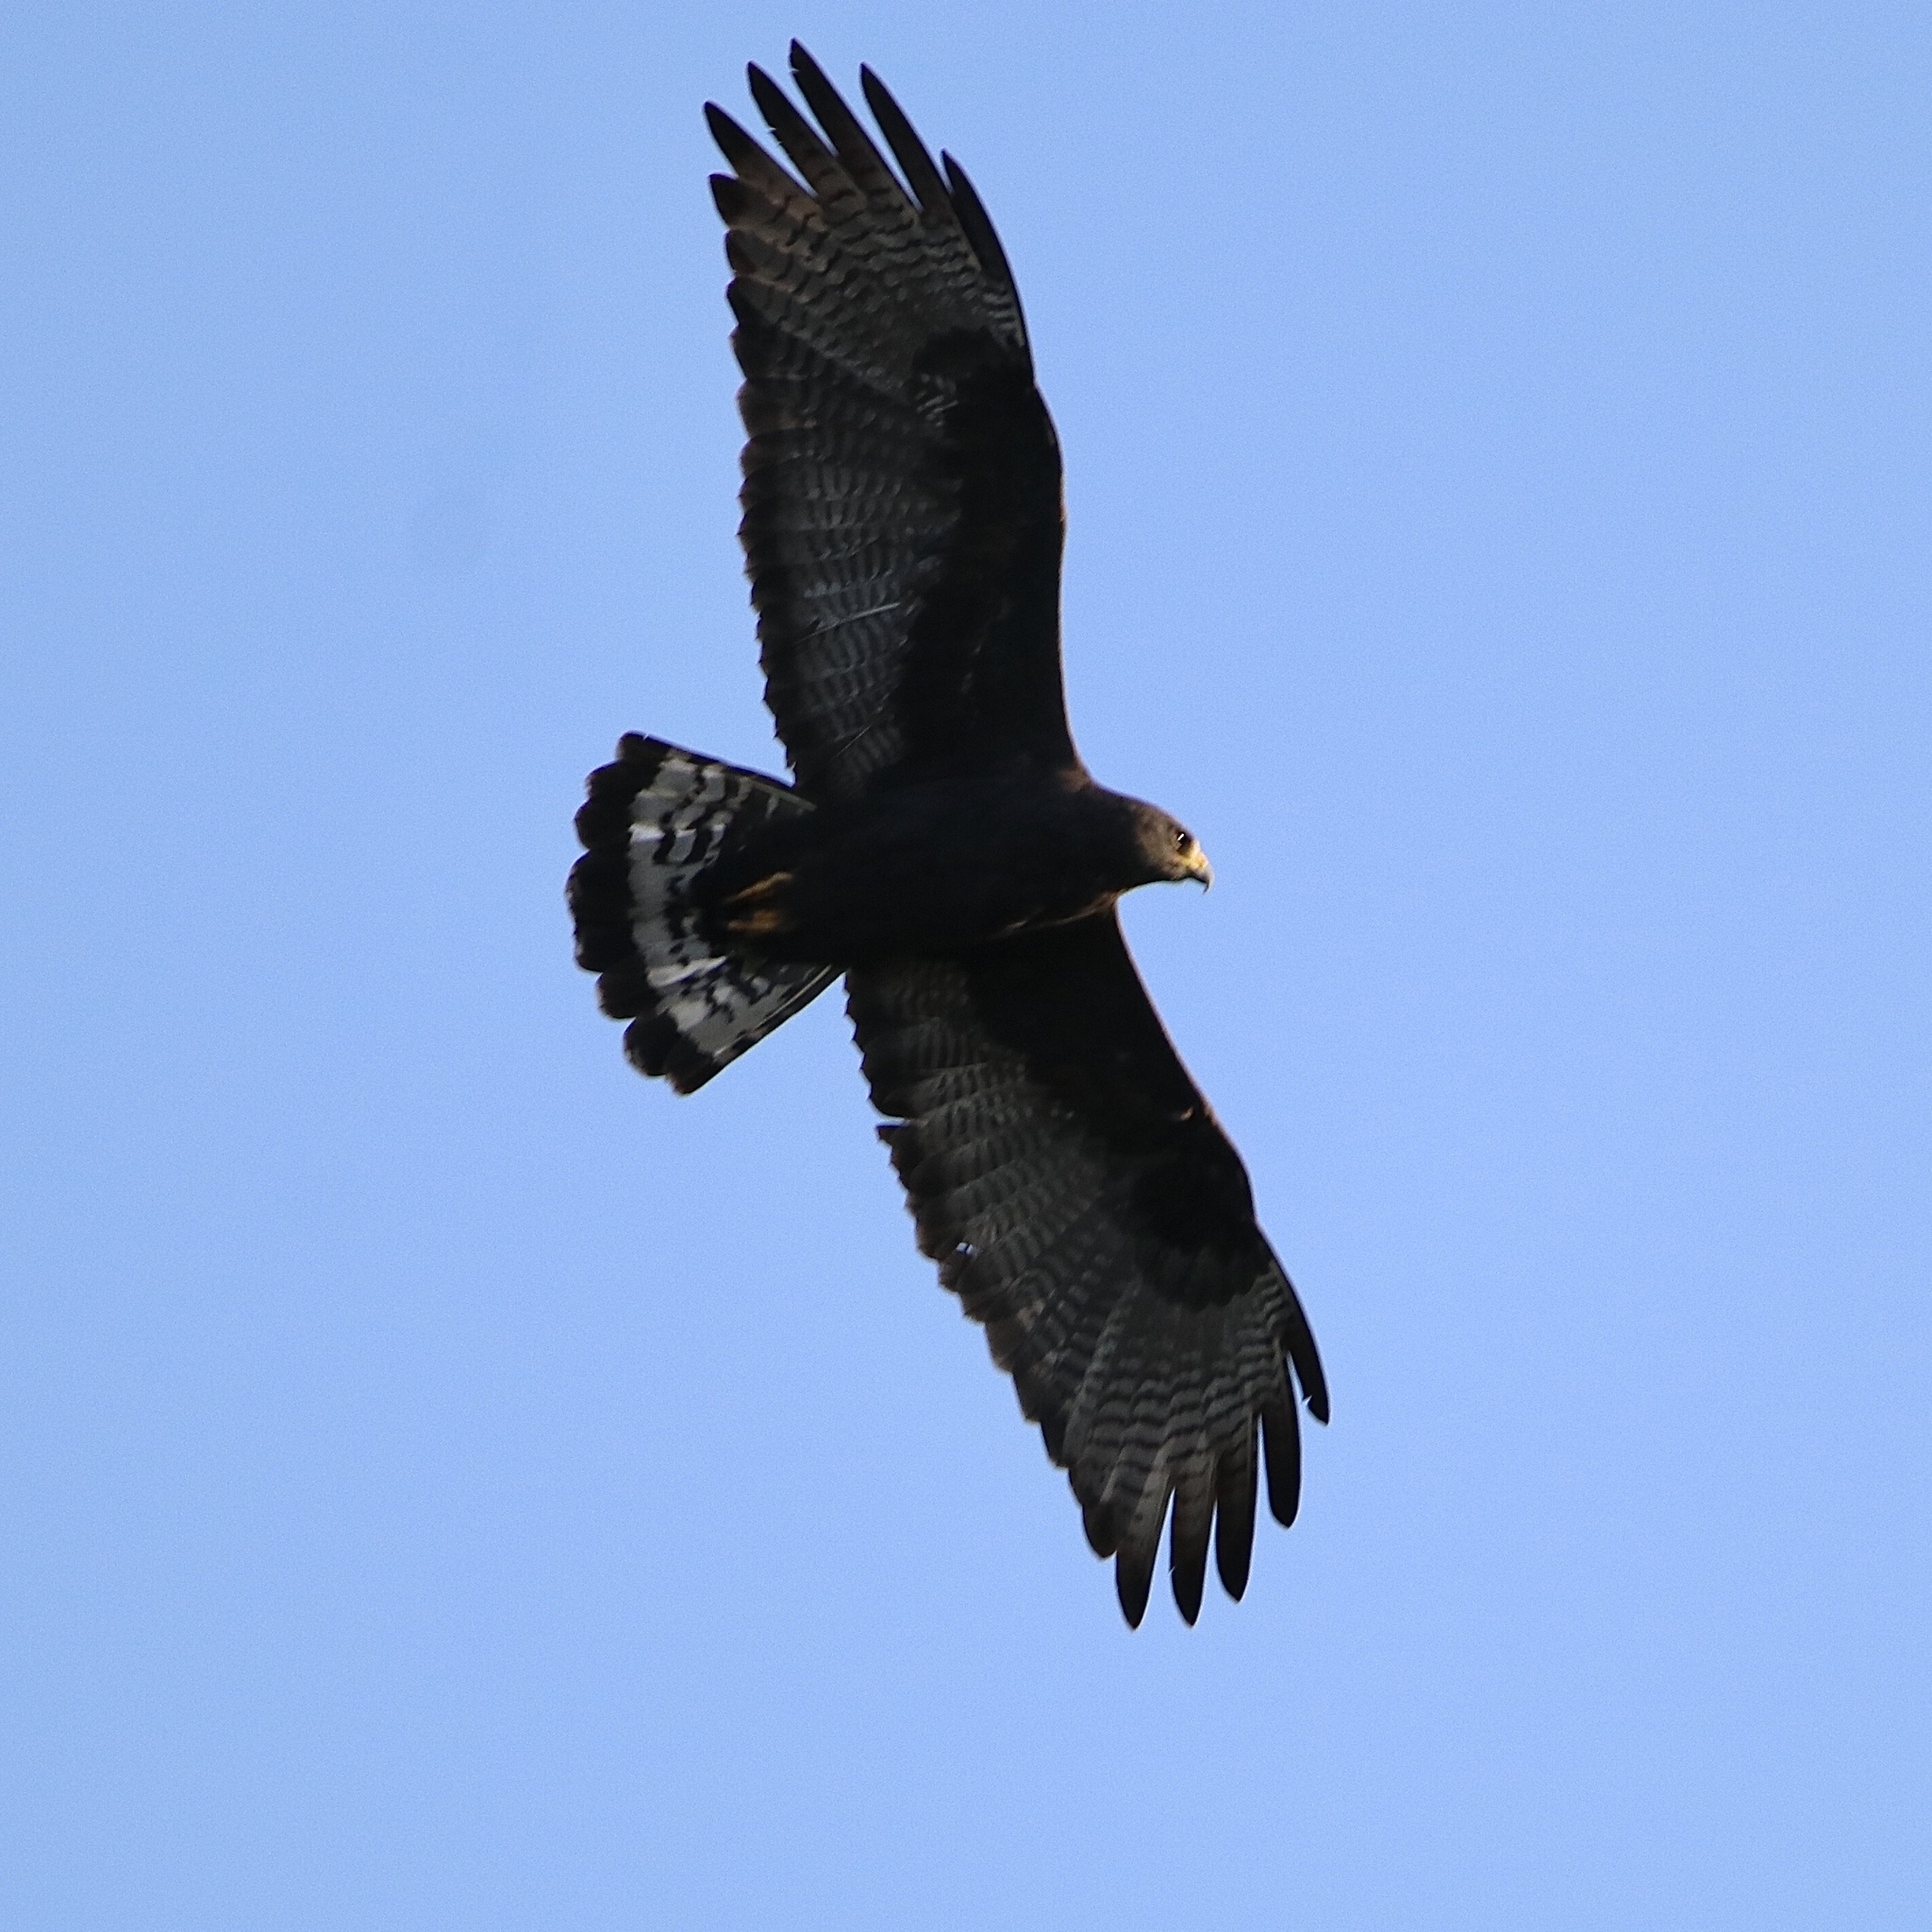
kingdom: Animalia
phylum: Chordata
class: Aves
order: Accipitriformes
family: Accipitridae
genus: Buteo
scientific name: Buteo albonotatus
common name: Zone-tailed hawk
